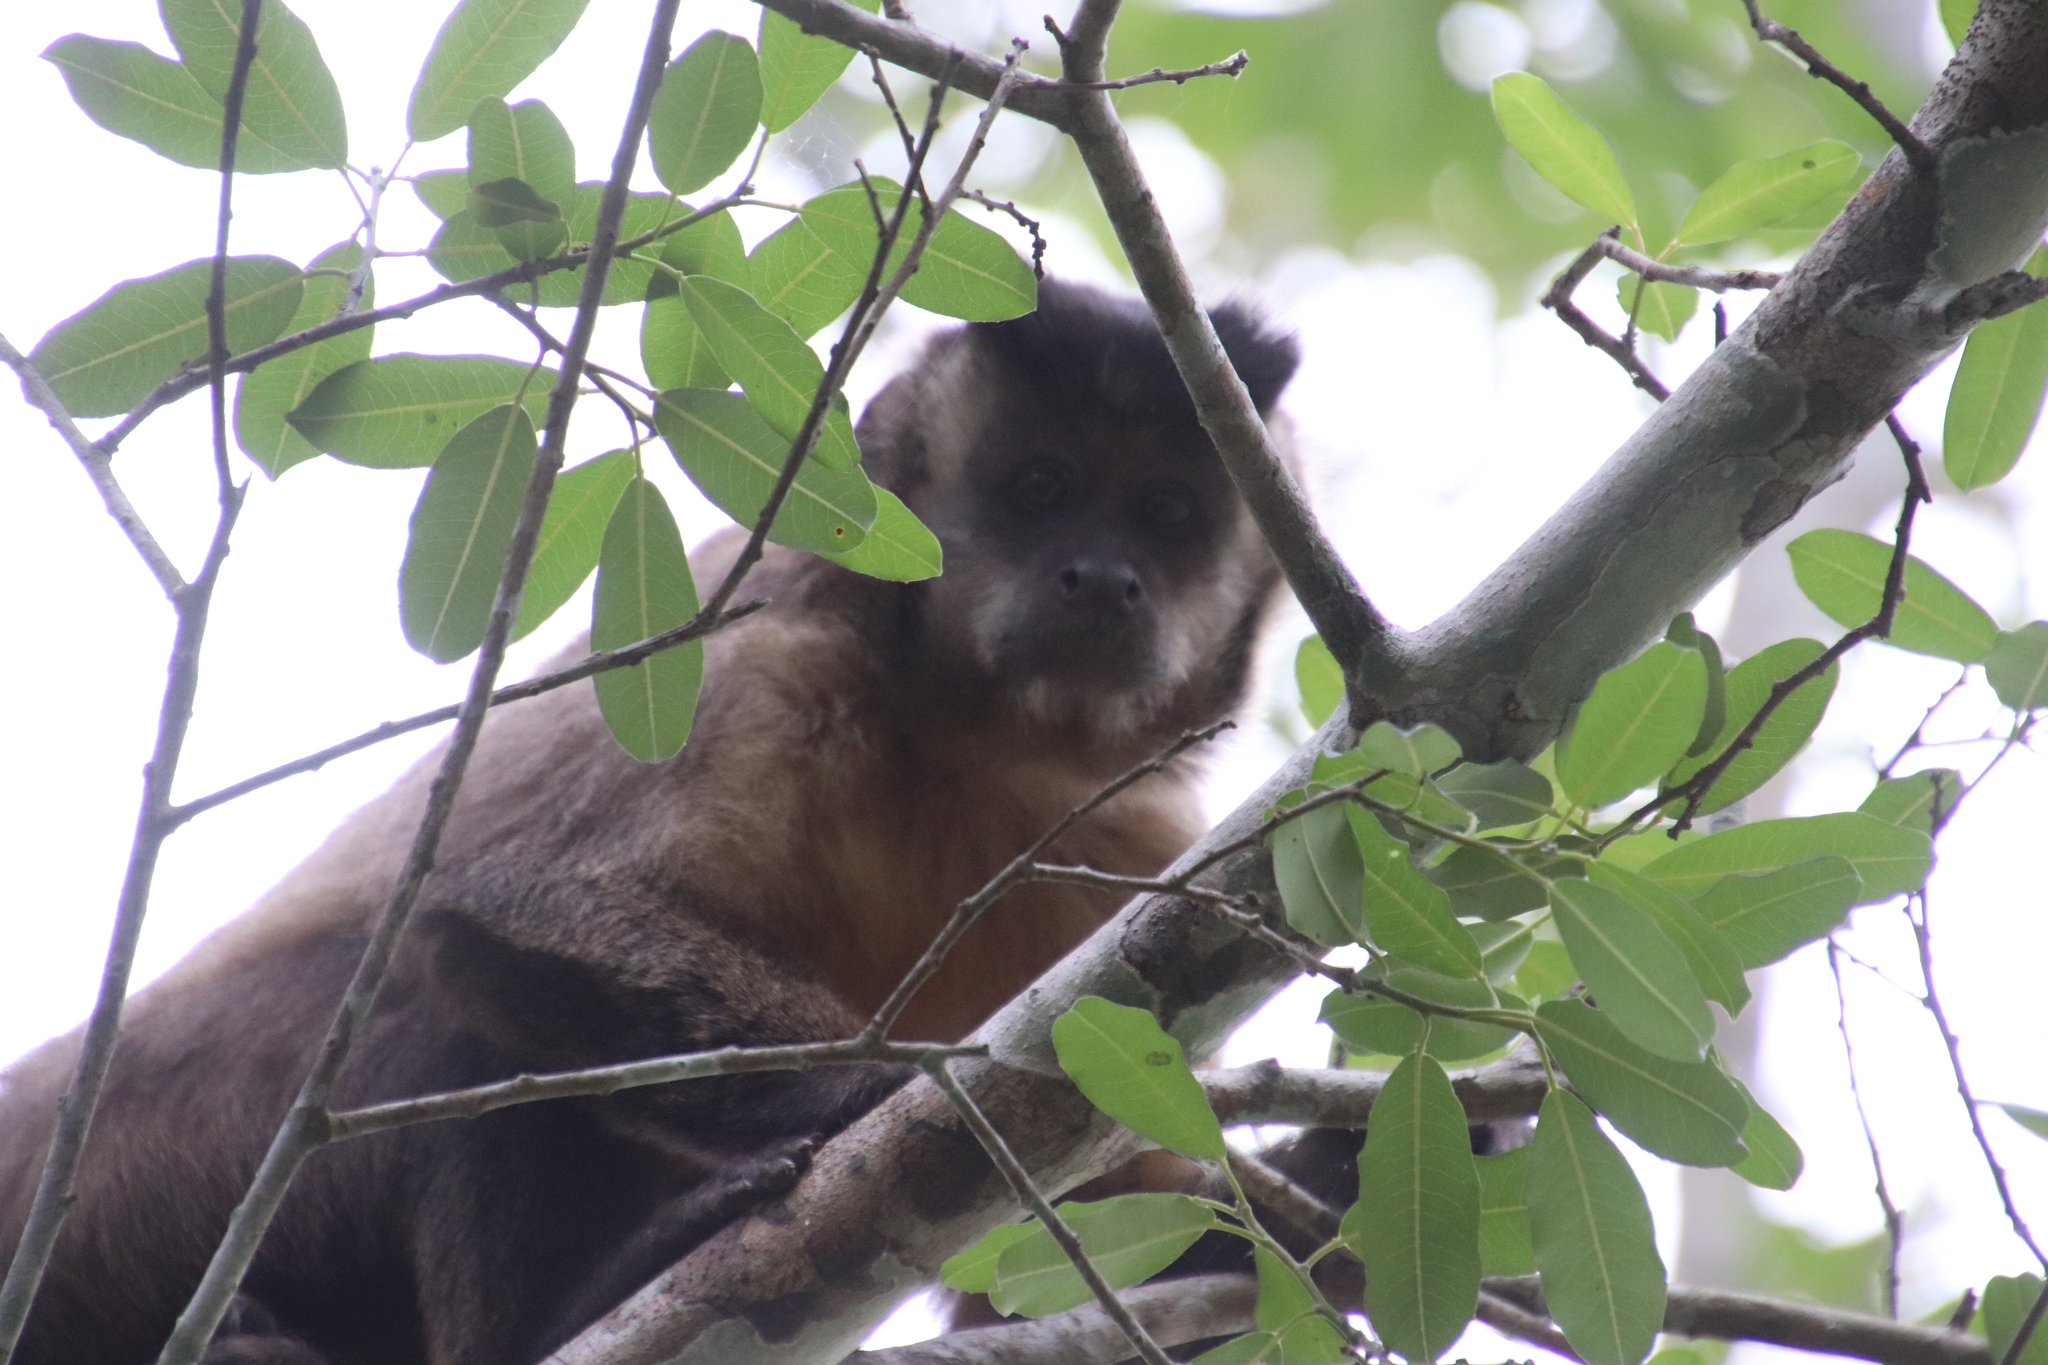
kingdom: Animalia
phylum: Chordata
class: Mammalia
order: Primates
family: Cebidae
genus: Sapajus
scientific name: Sapajus libidinosus
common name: Bearded capuchin
